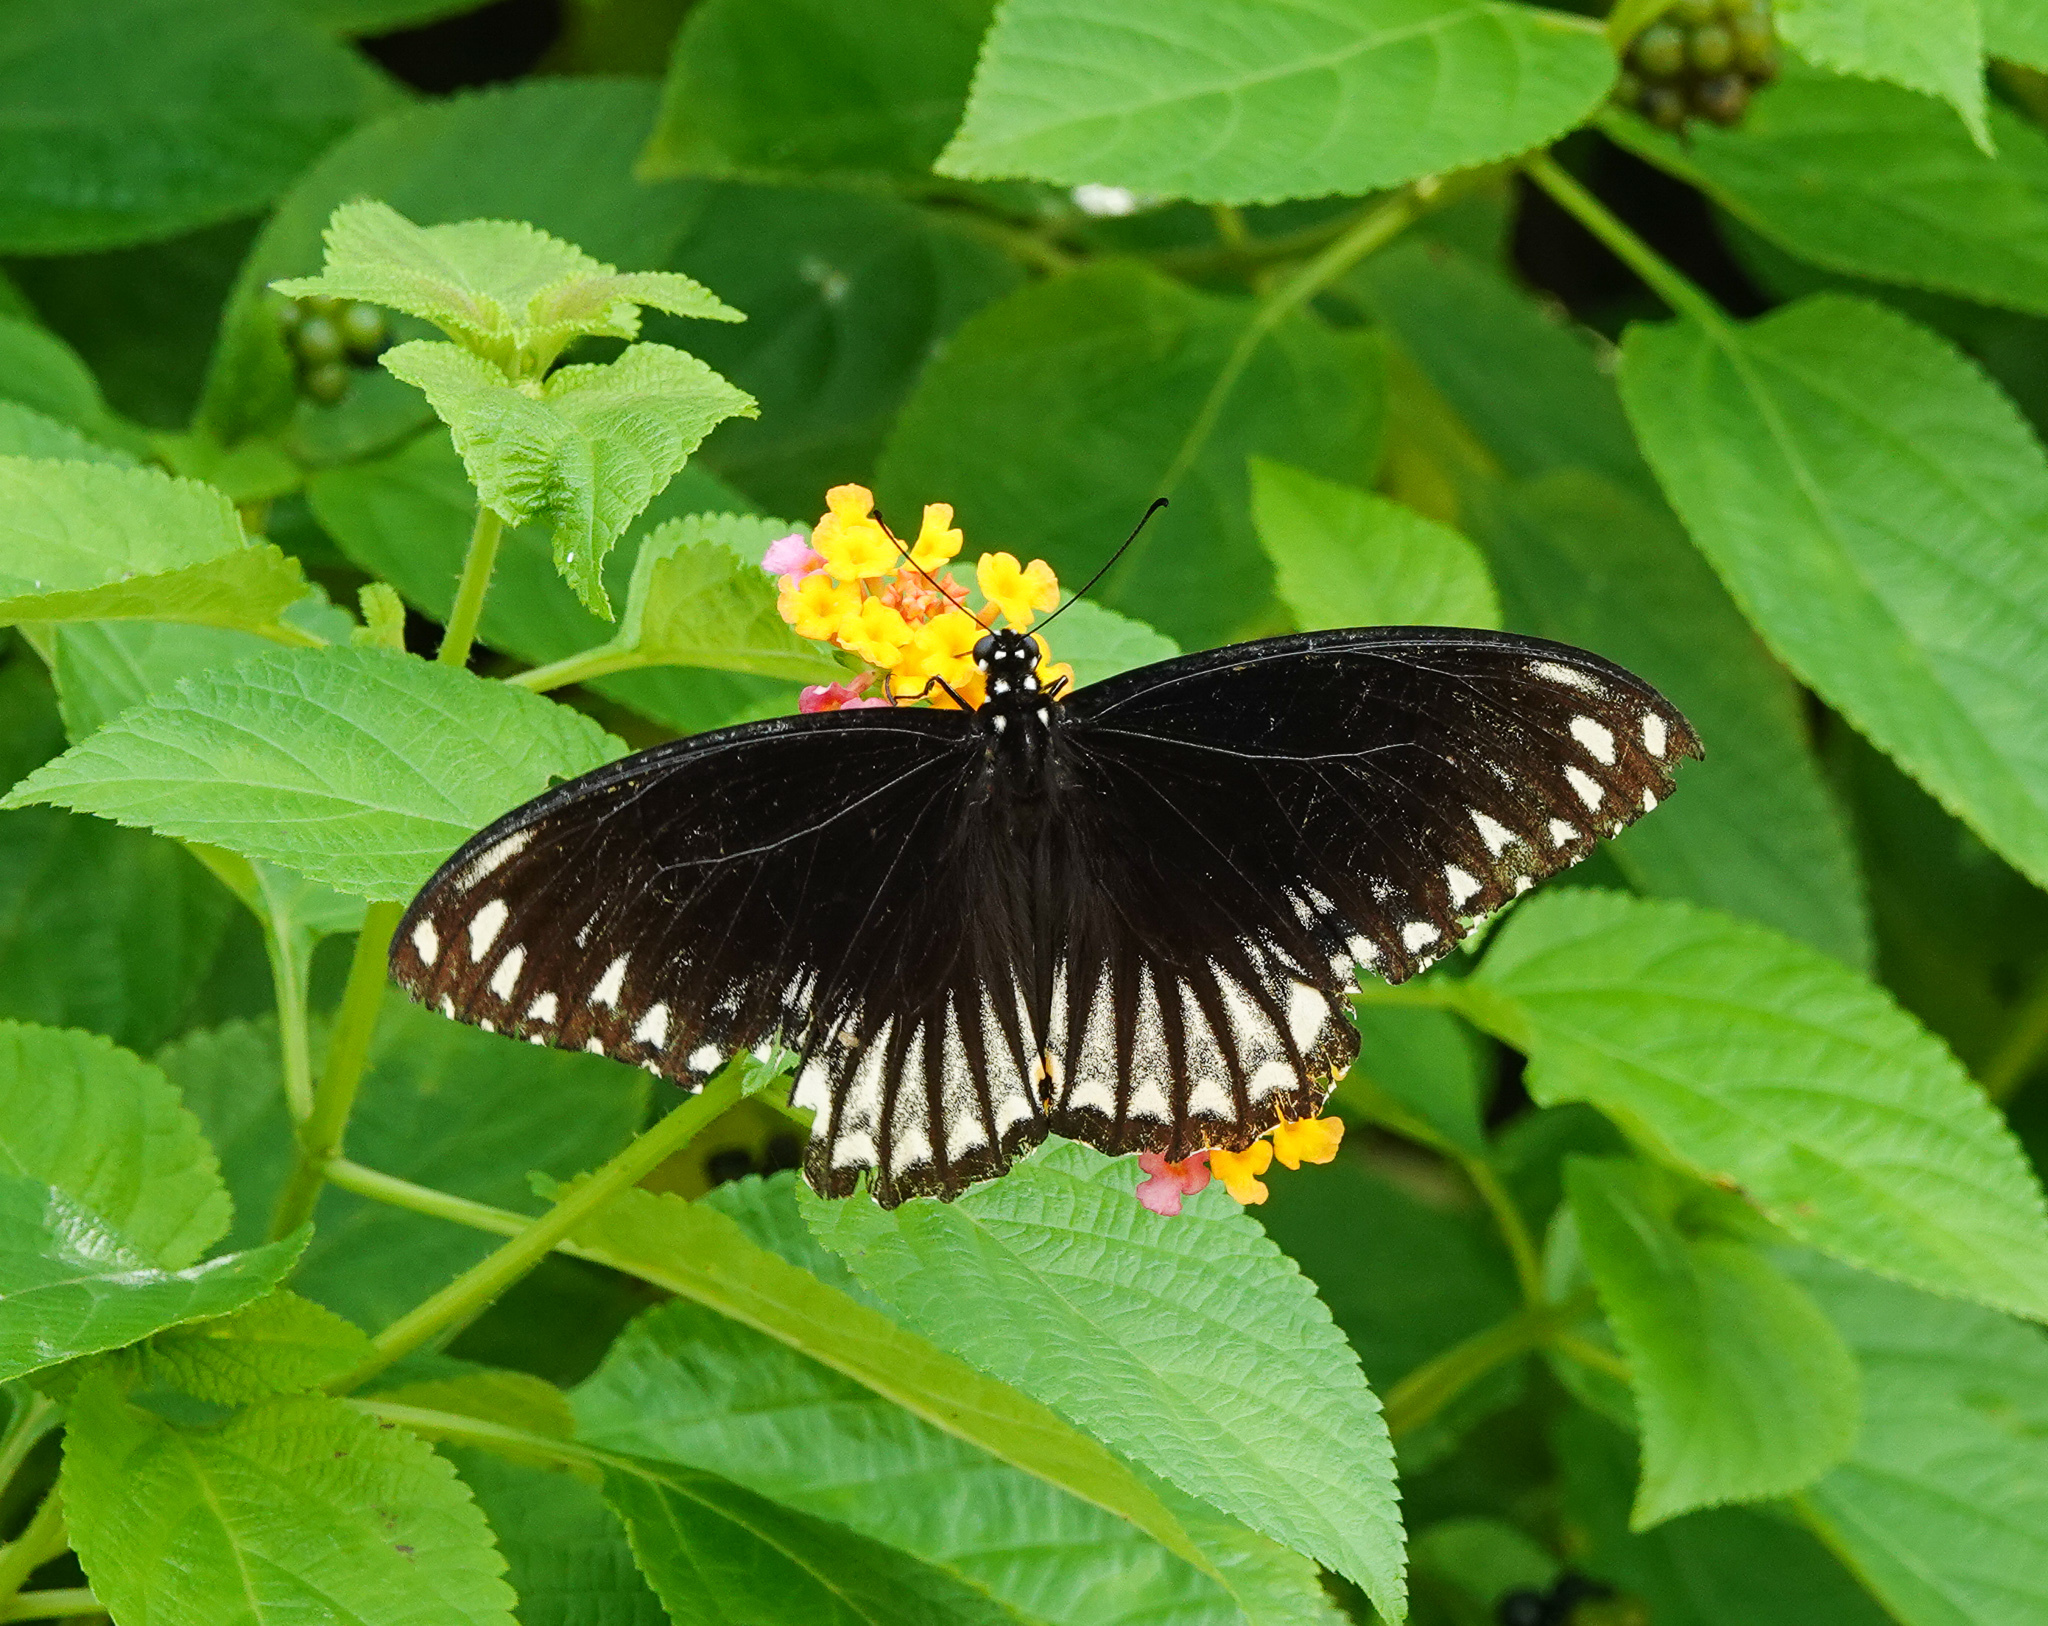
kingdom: Animalia
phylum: Arthropoda
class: Insecta
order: Lepidoptera
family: Papilionidae
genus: Chilasa
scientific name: Chilasa clytia
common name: Common mime
